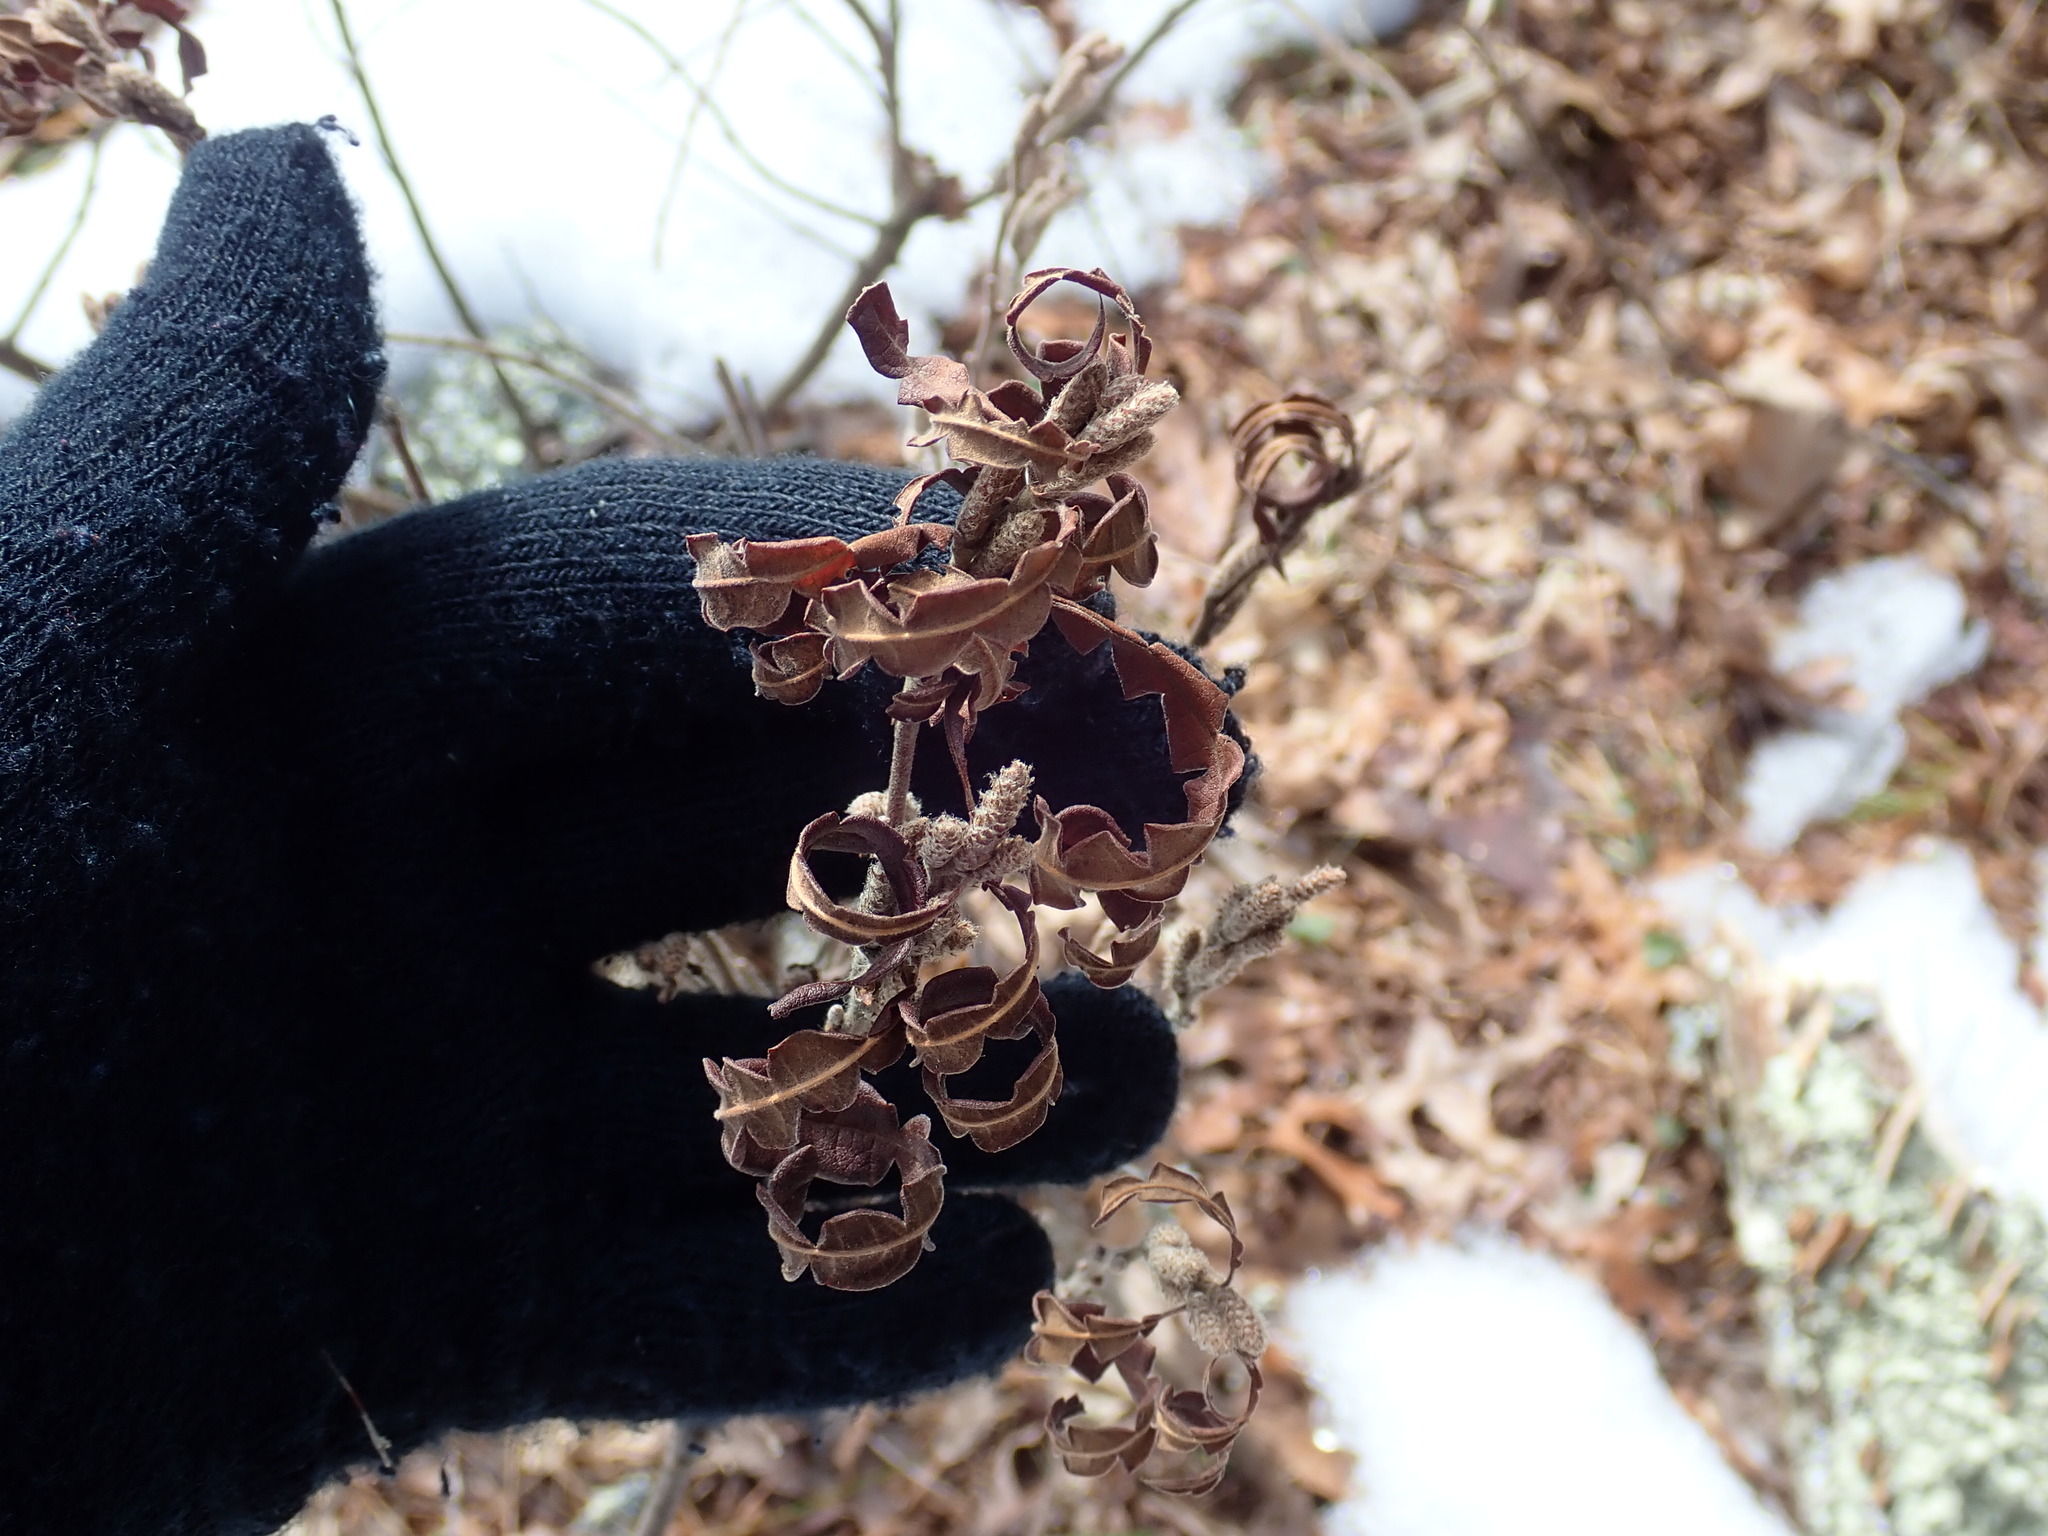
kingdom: Plantae
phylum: Tracheophyta
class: Magnoliopsida
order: Fagales
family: Myricaceae
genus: Comptonia
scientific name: Comptonia peregrina
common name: Sweet-fern
